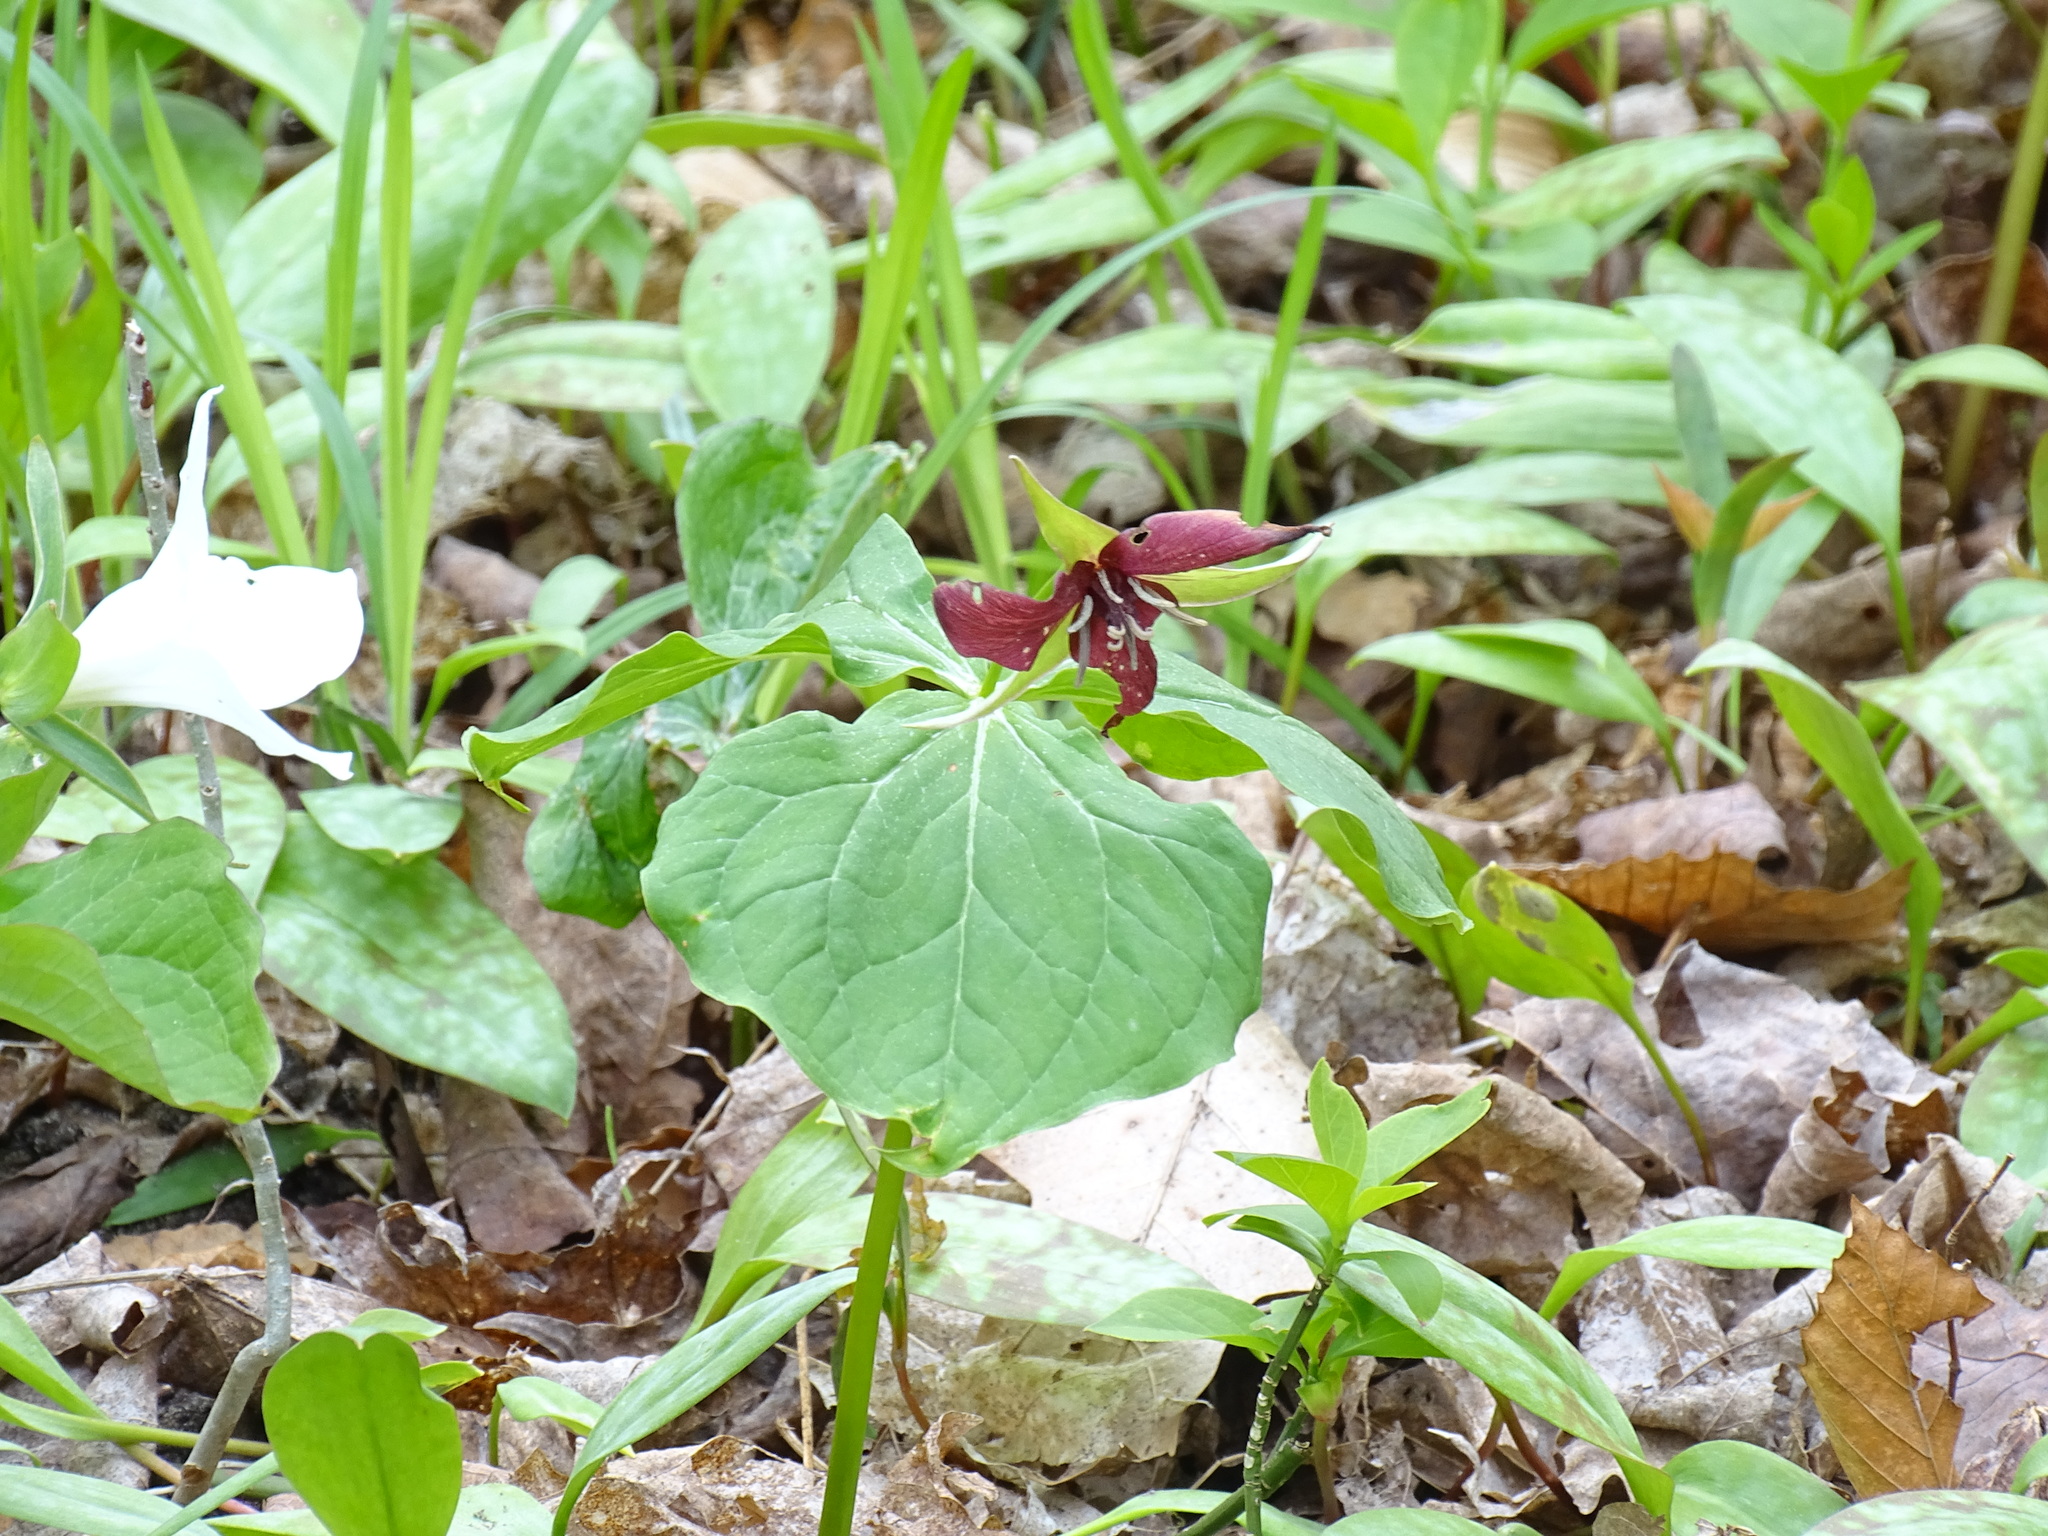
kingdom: Plantae
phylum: Tracheophyta
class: Liliopsida
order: Liliales
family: Melanthiaceae
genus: Trillium
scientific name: Trillium erectum
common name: Purple trillium
